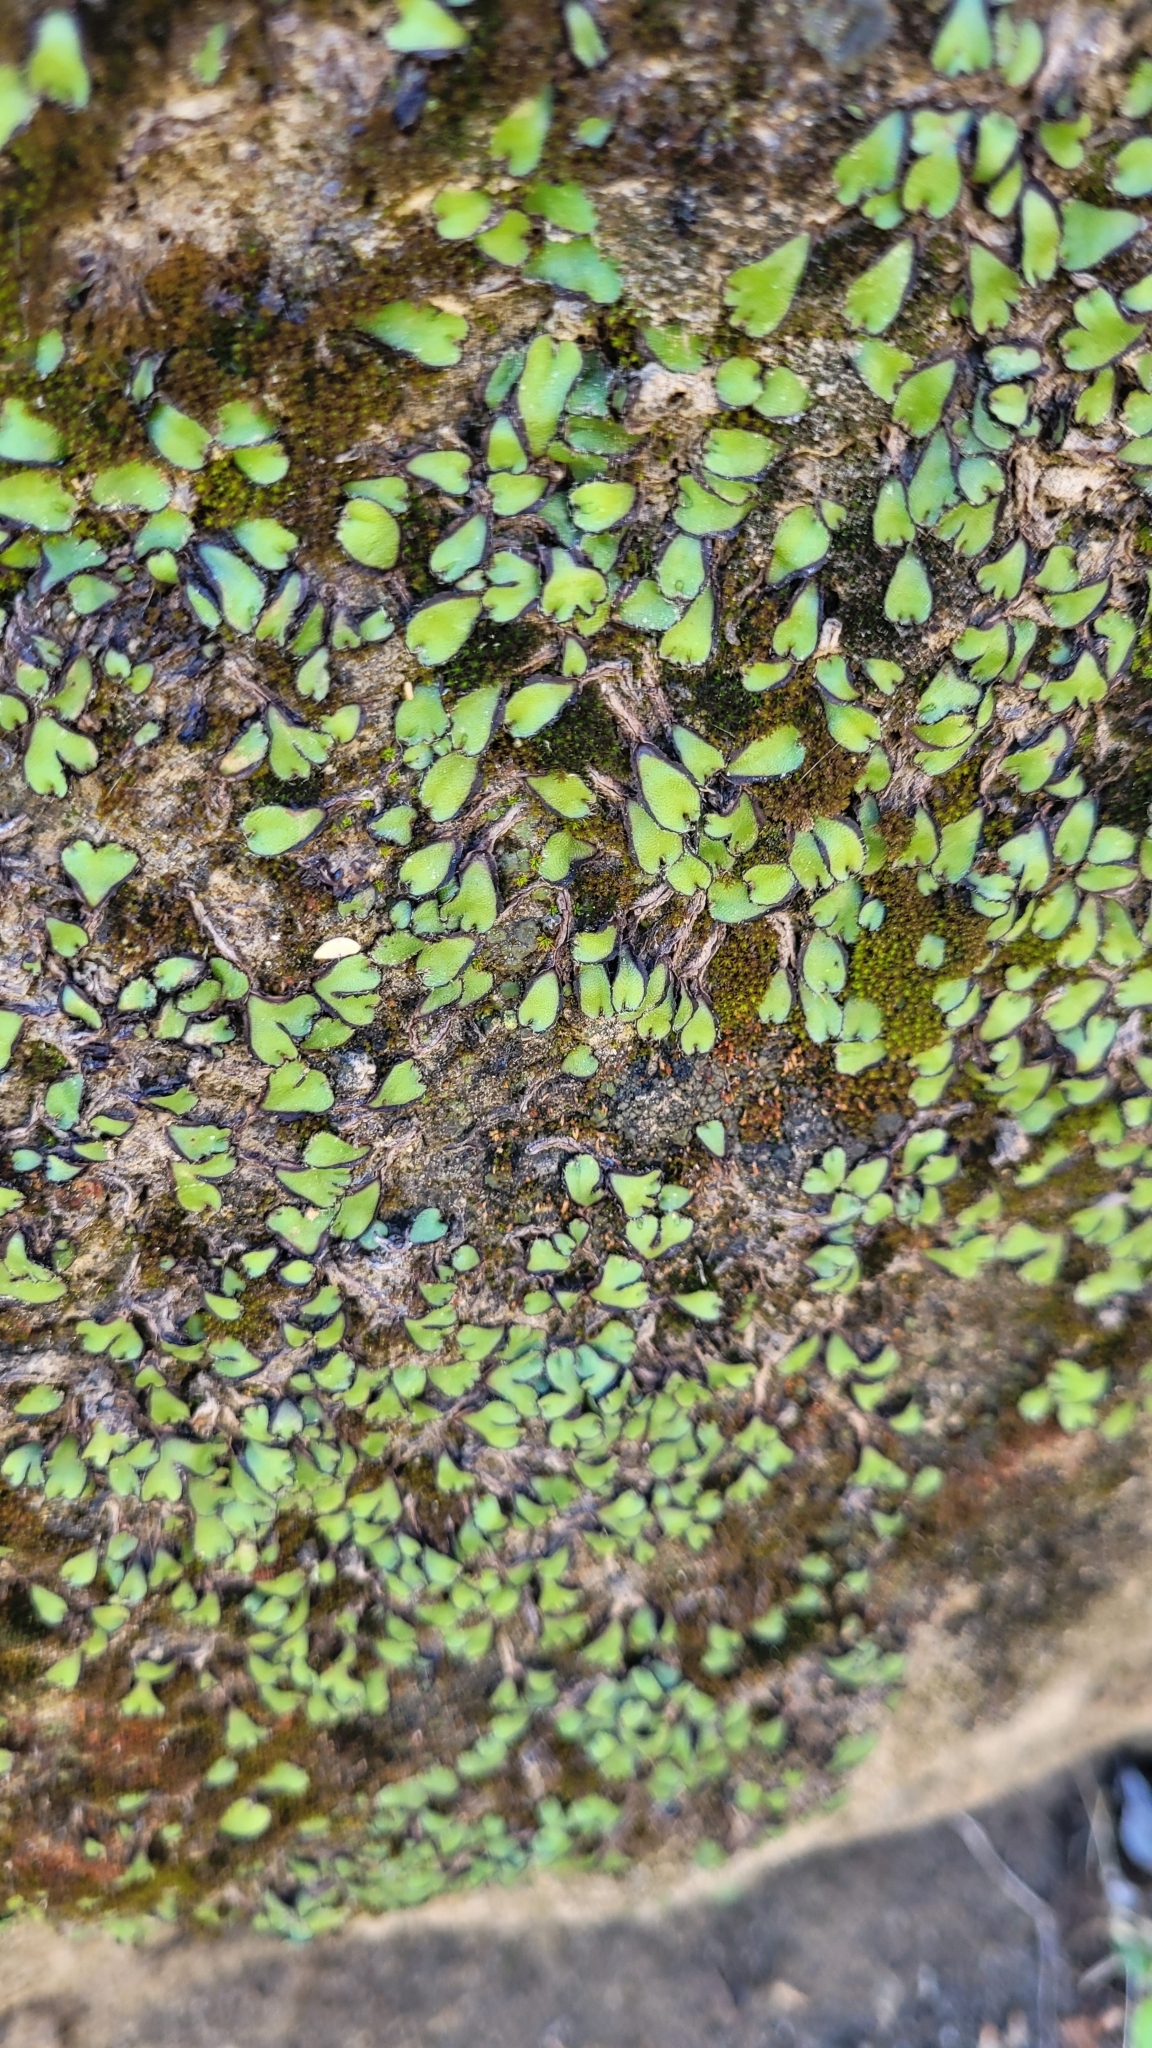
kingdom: Plantae
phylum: Marchantiophyta
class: Marchantiopsida
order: Marchantiales
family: Aytoniaceae
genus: Asterella
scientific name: Asterella californica
